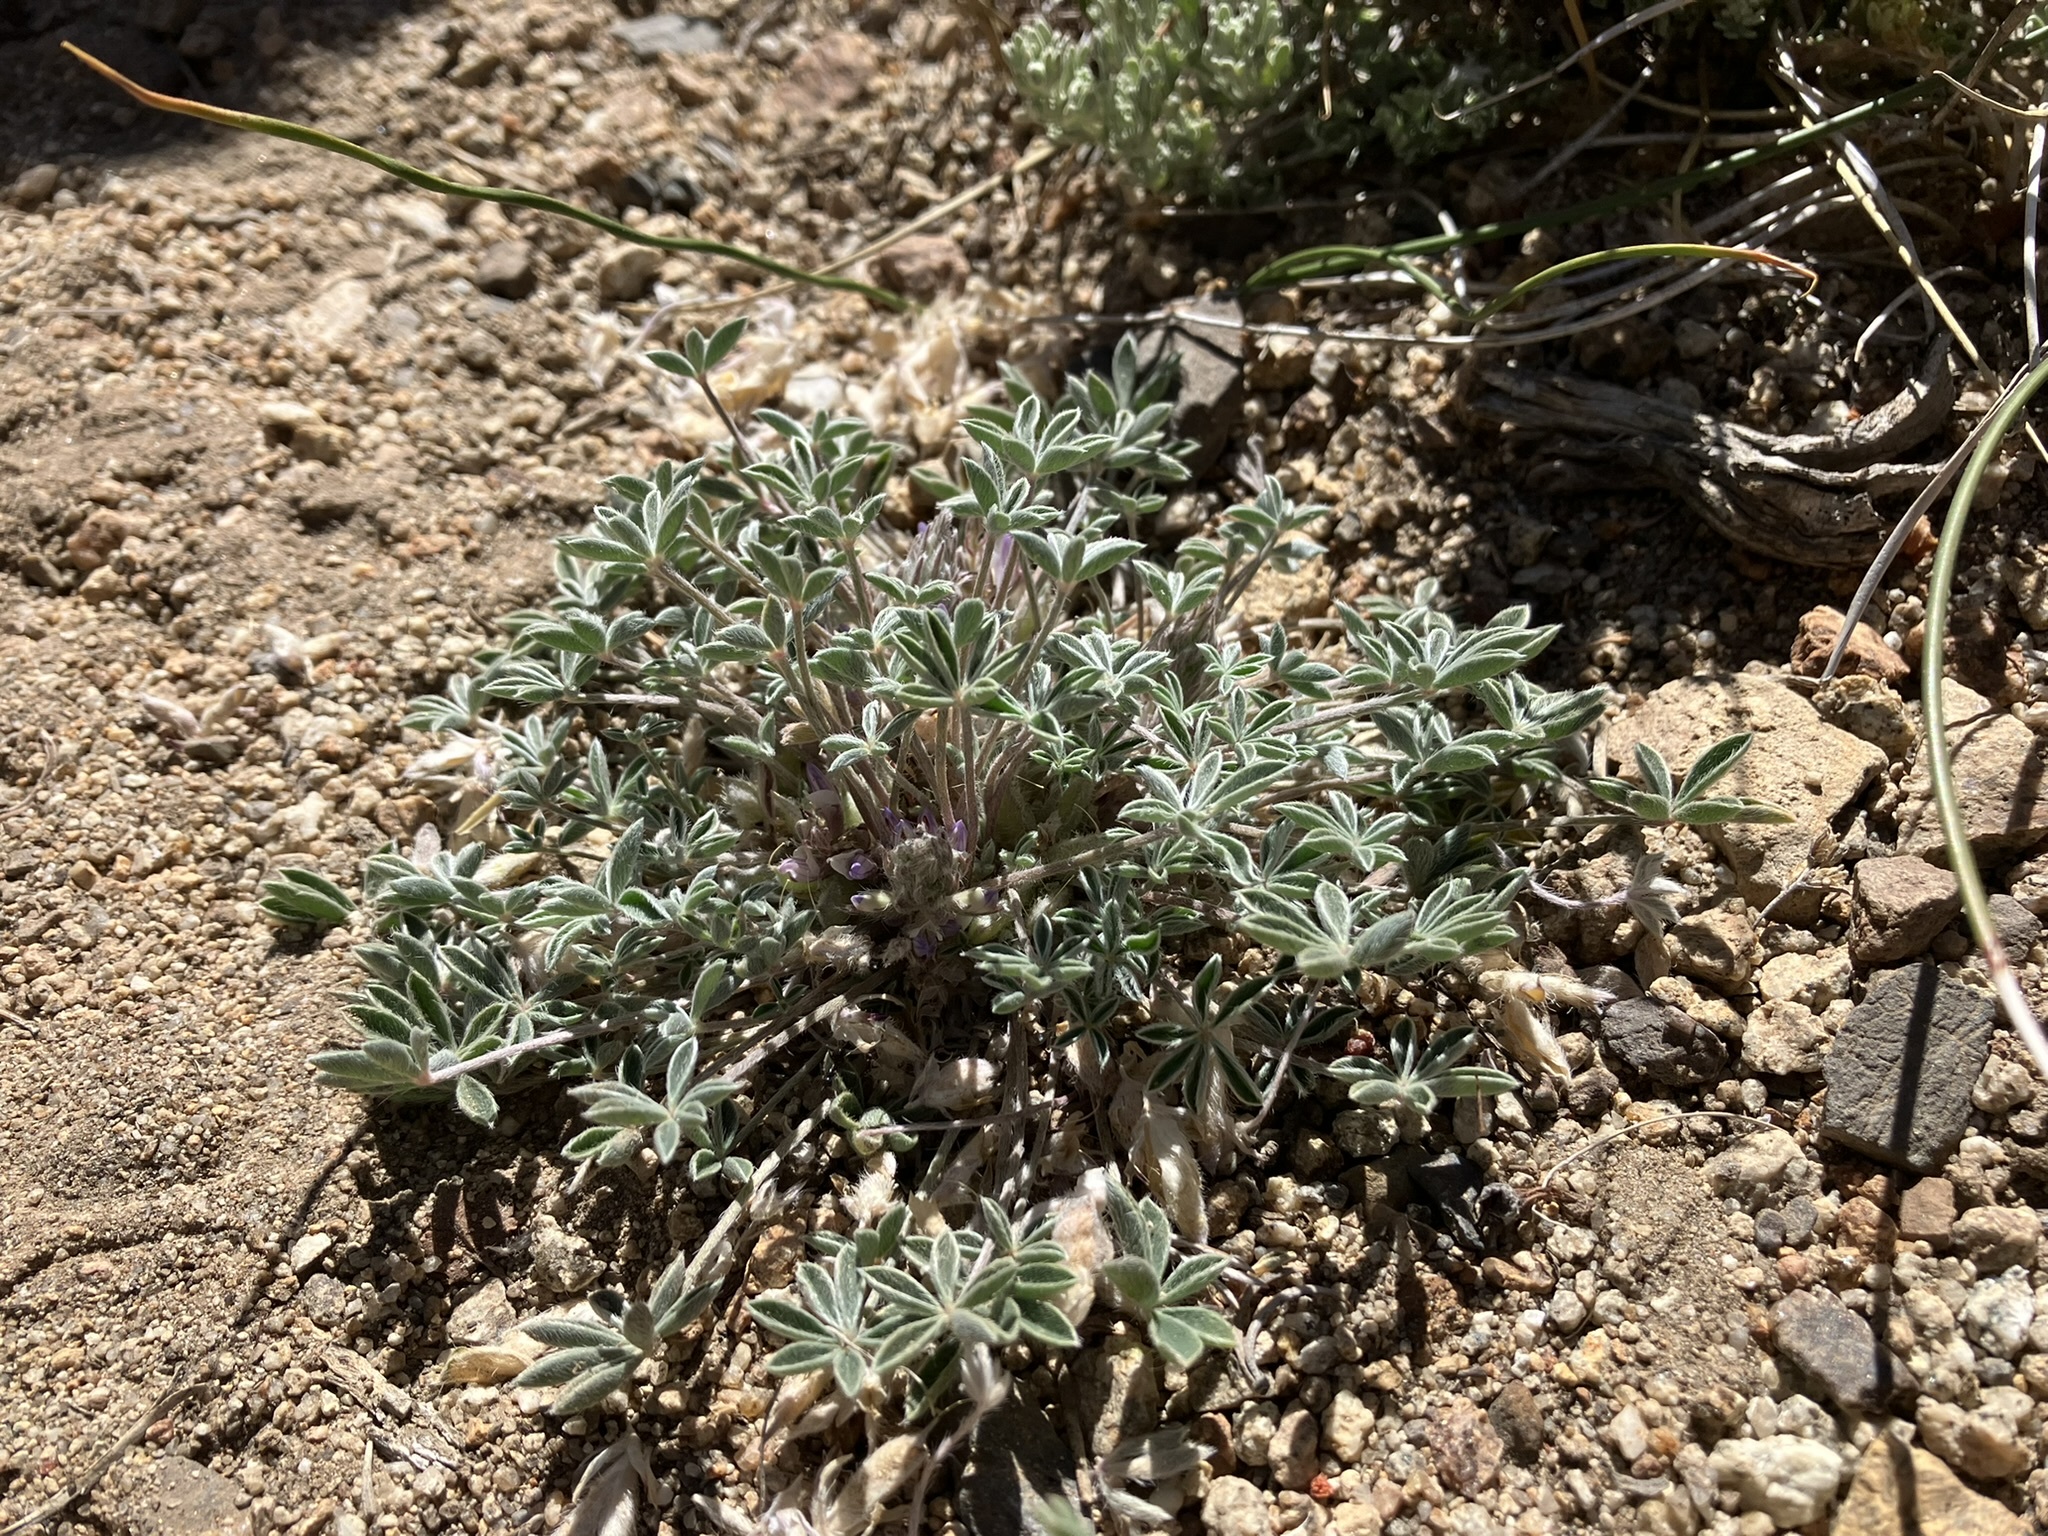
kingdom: Plantae
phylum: Tracheophyta
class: Magnoliopsida
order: Fabales
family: Fabaceae
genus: Lupinus
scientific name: Lupinus caespitosus
